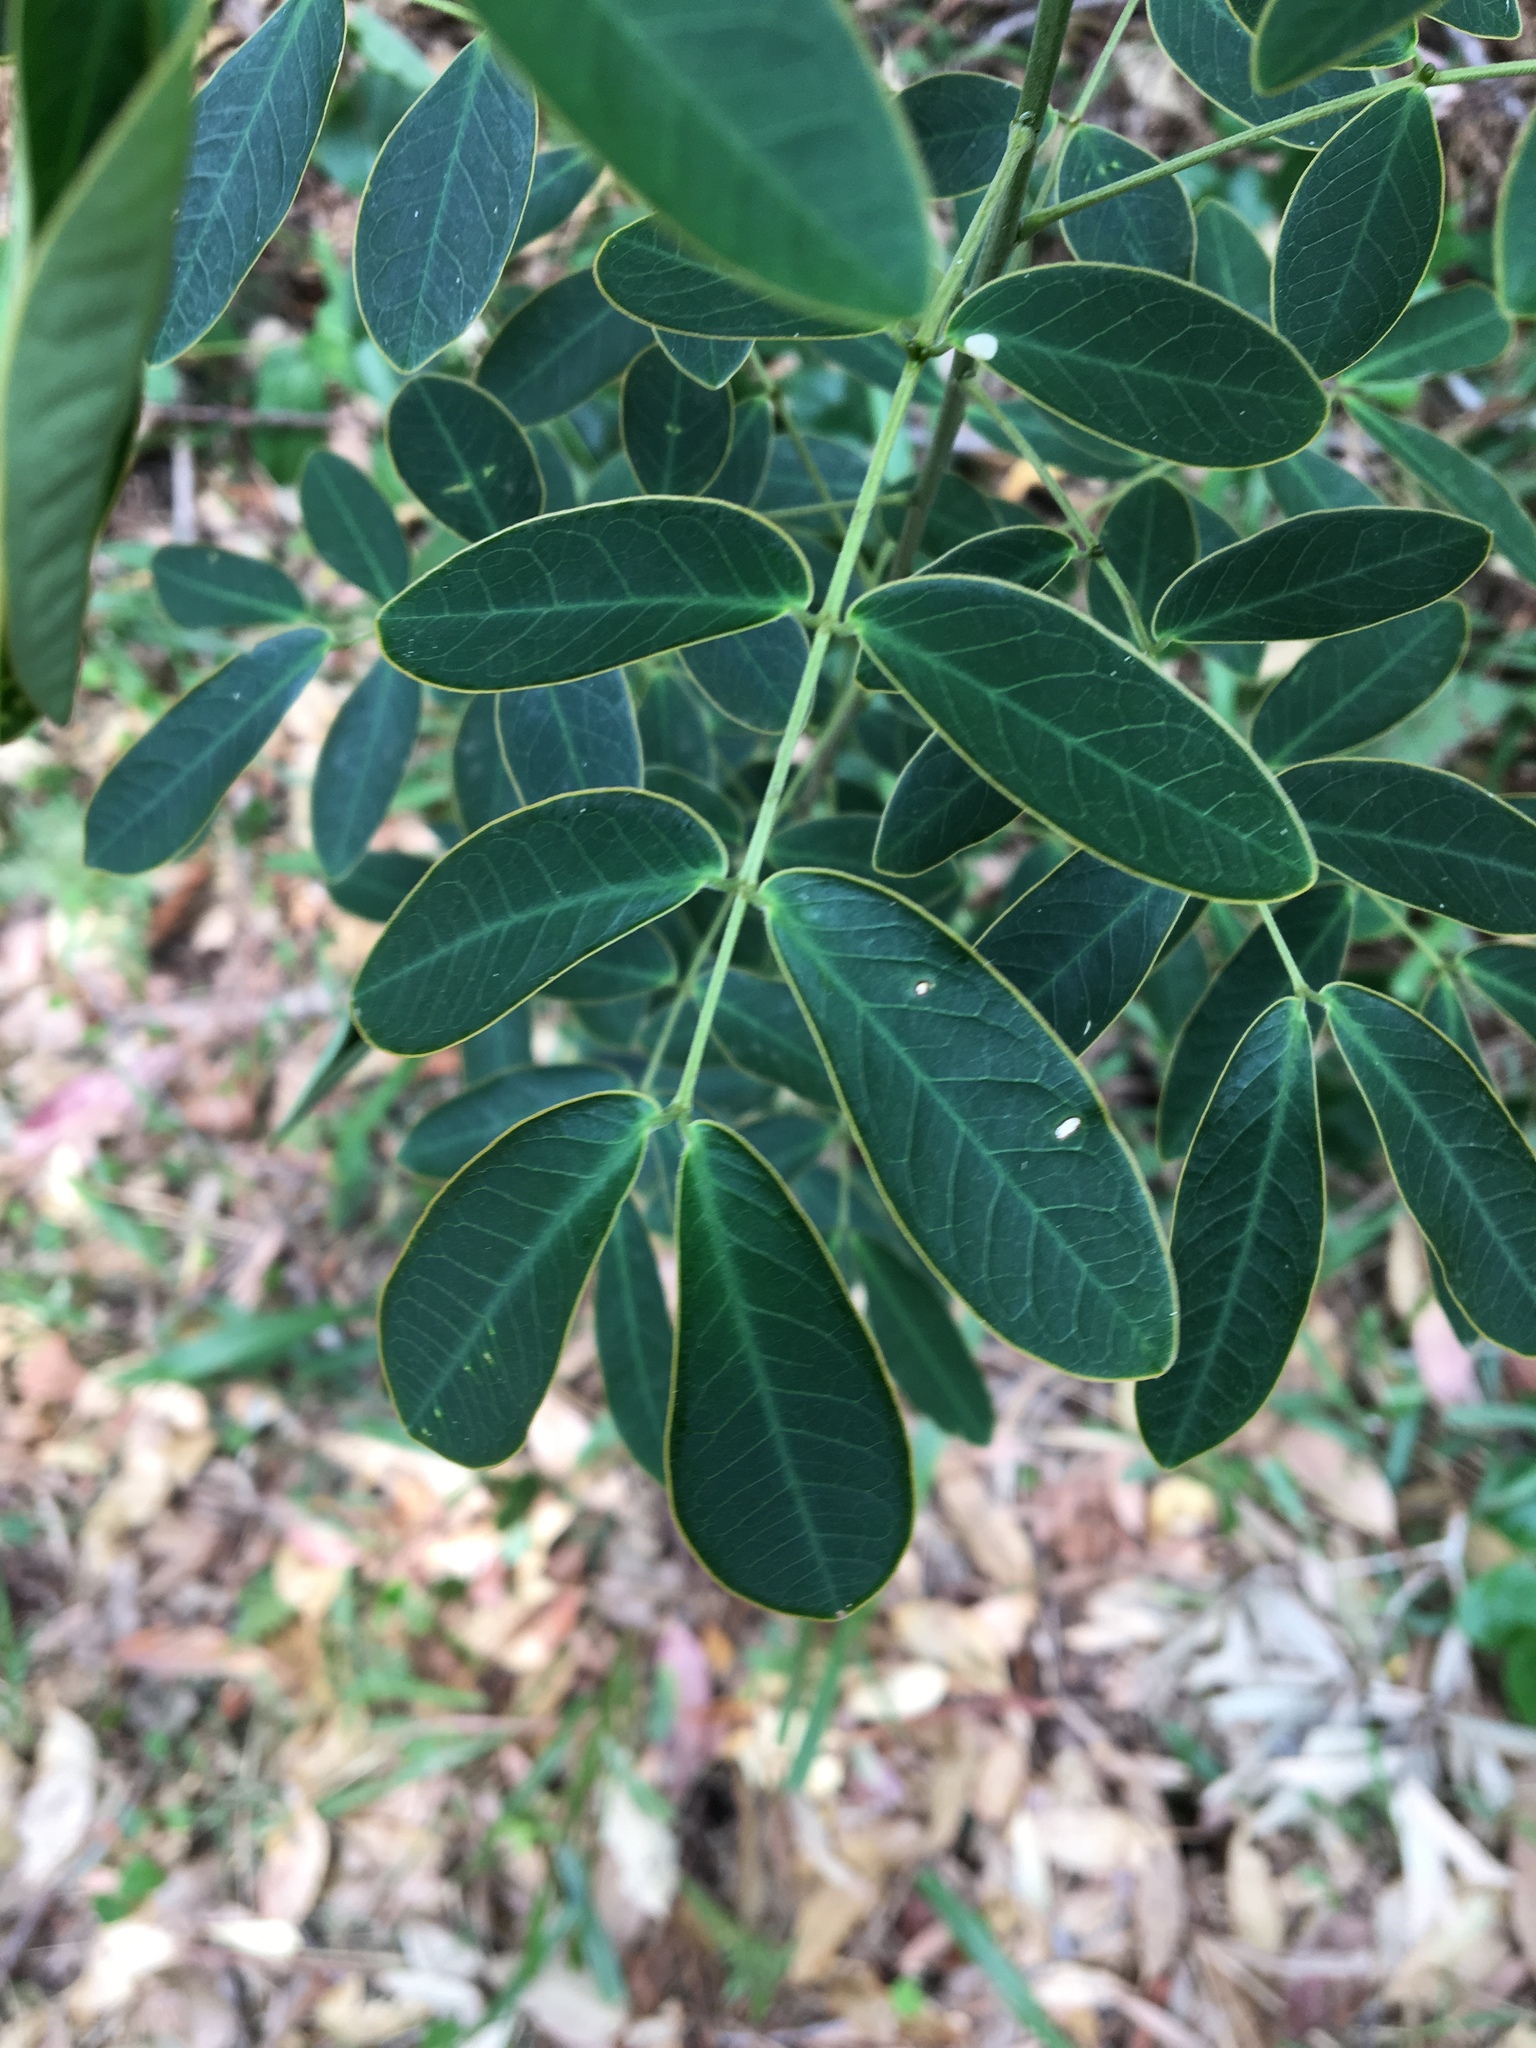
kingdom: Plantae
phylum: Tracheophyta
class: Magnoliopsida
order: Fabales
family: Fabaceae
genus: Senna
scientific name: Senna pendula
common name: Easter cassia
